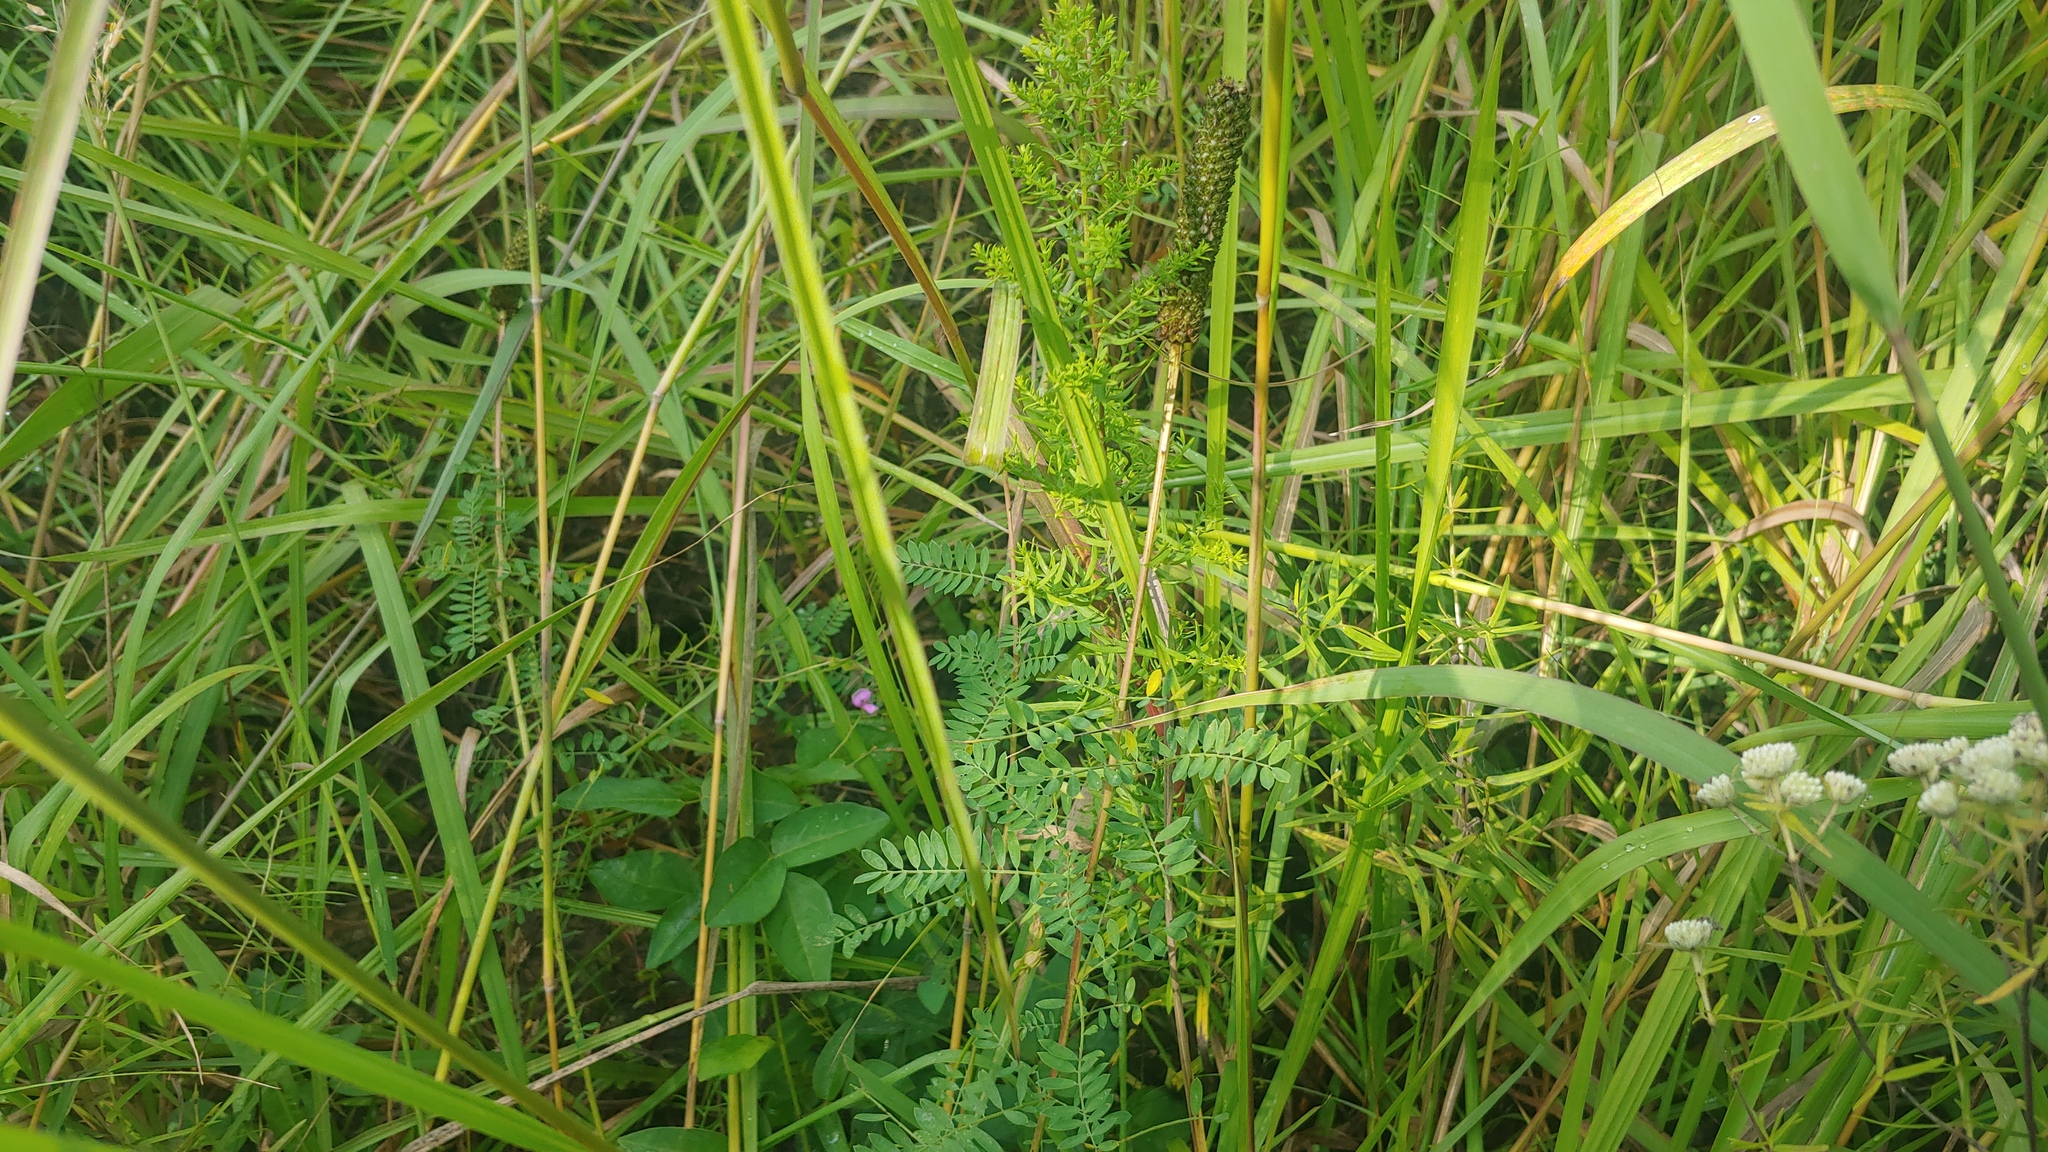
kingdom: Plantae
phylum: Tracheophyta
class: Magnoliopsida
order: Fabales
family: Fabaceae
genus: Dalea
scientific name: Dalea foliosa
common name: Leafy prairie-clover
